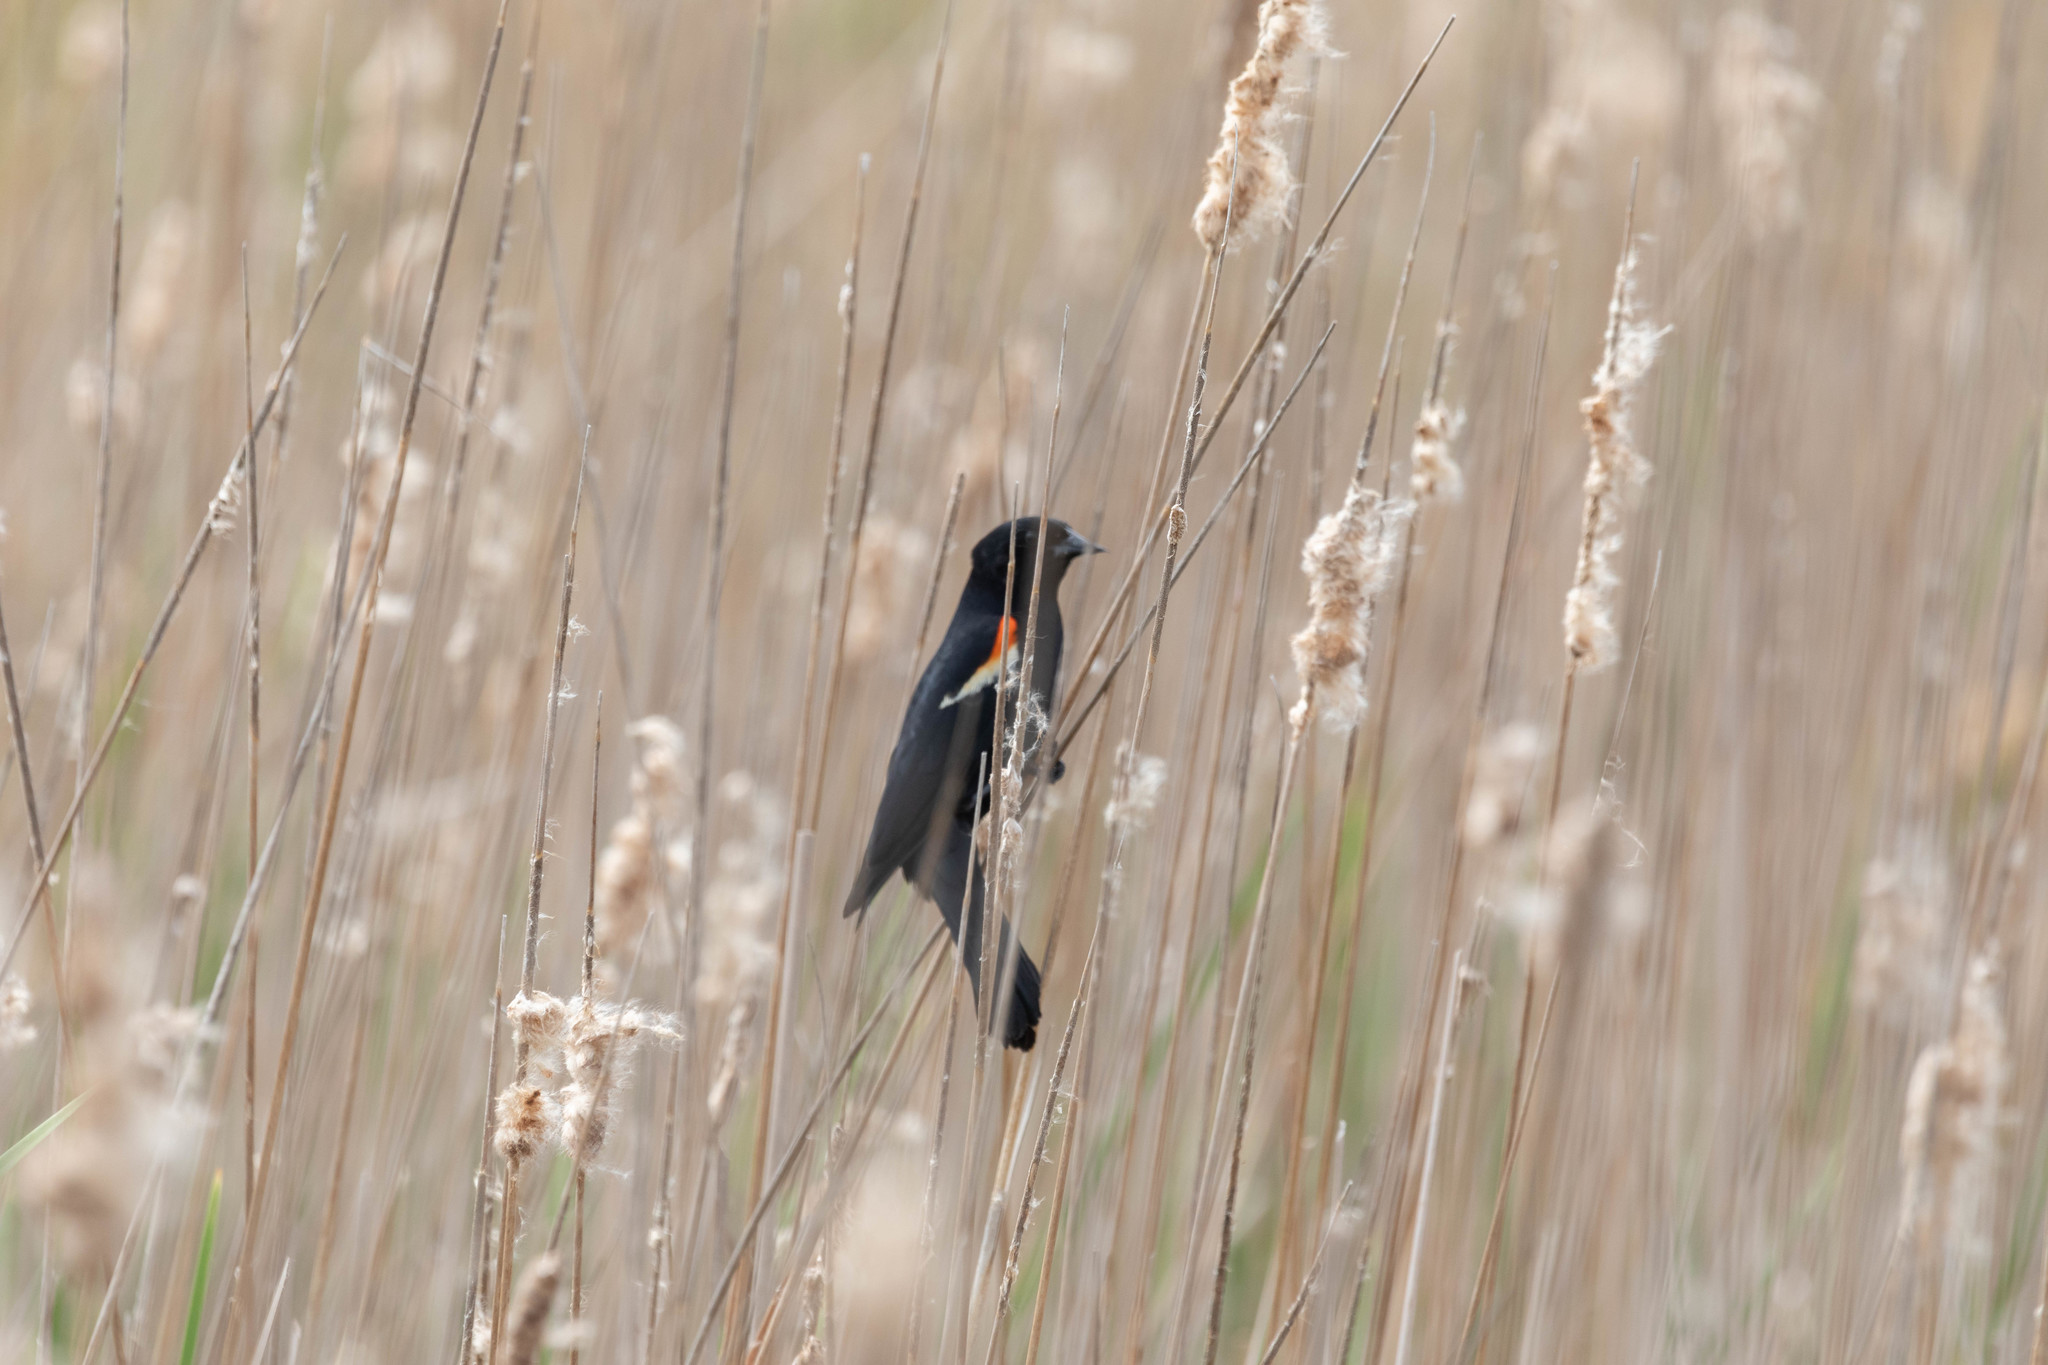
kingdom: Animalia
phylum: Chordata
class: Aves
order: Passeriformes
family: Icteridae
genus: Agelaius
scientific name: Agelaius phoeniceus
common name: Red-winged blackbird
